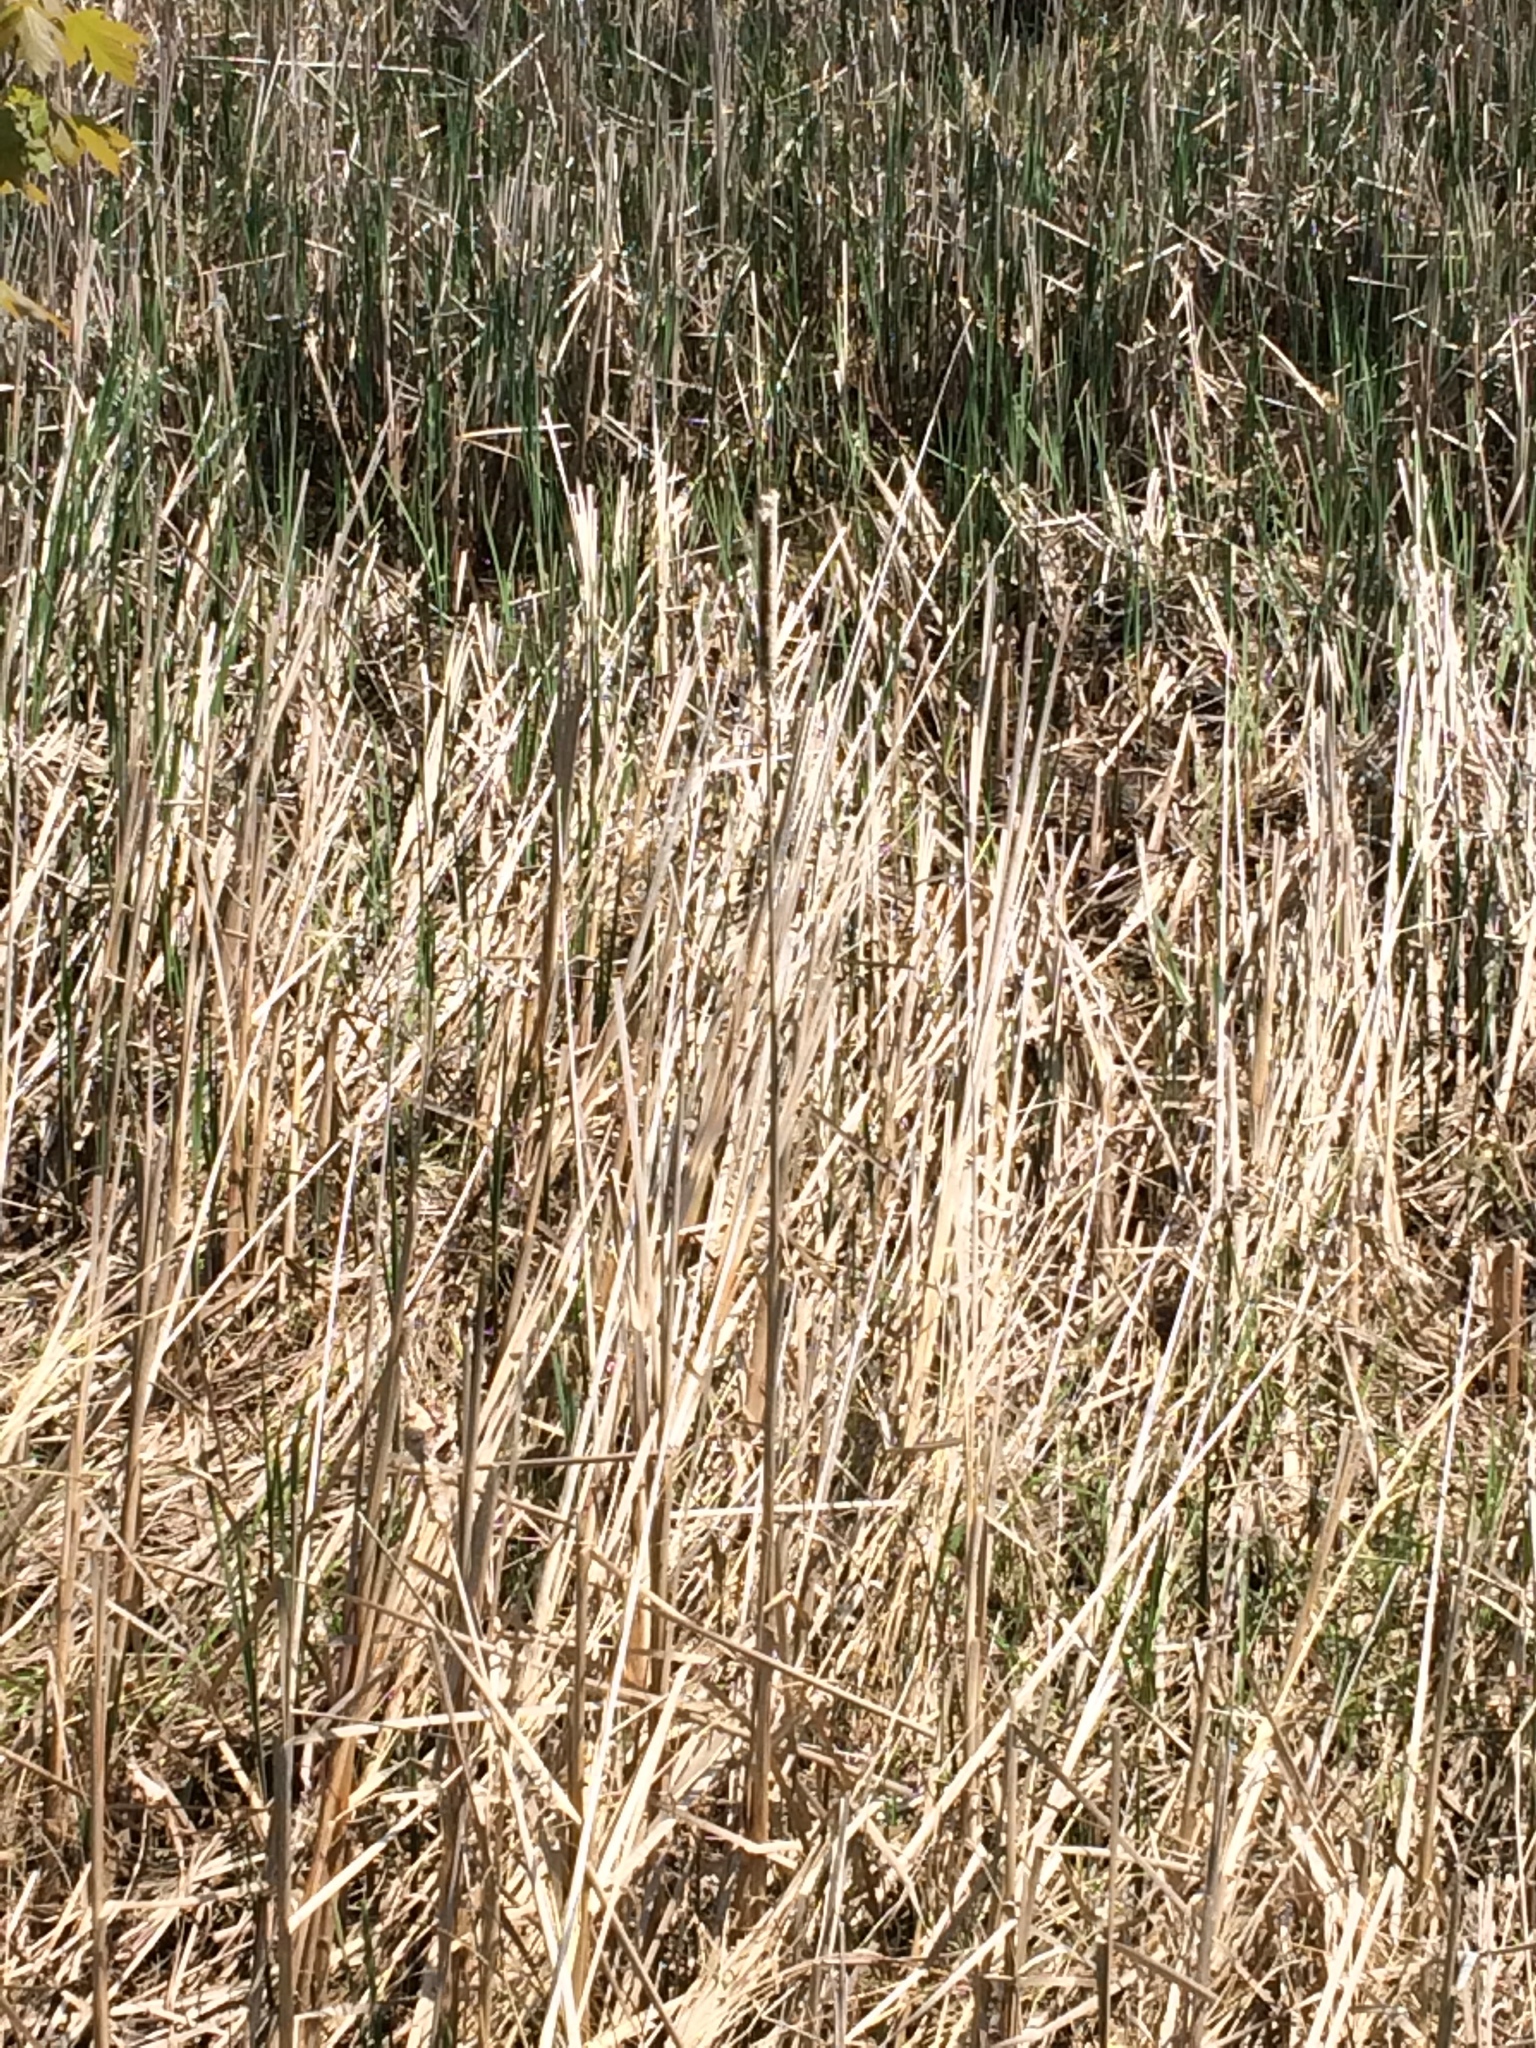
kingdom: Plantae
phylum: Tracheophyta
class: Liliopsida
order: Poales
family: Typhaceae
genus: Typha
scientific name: Typha angustifolia
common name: Lesser bulrush
